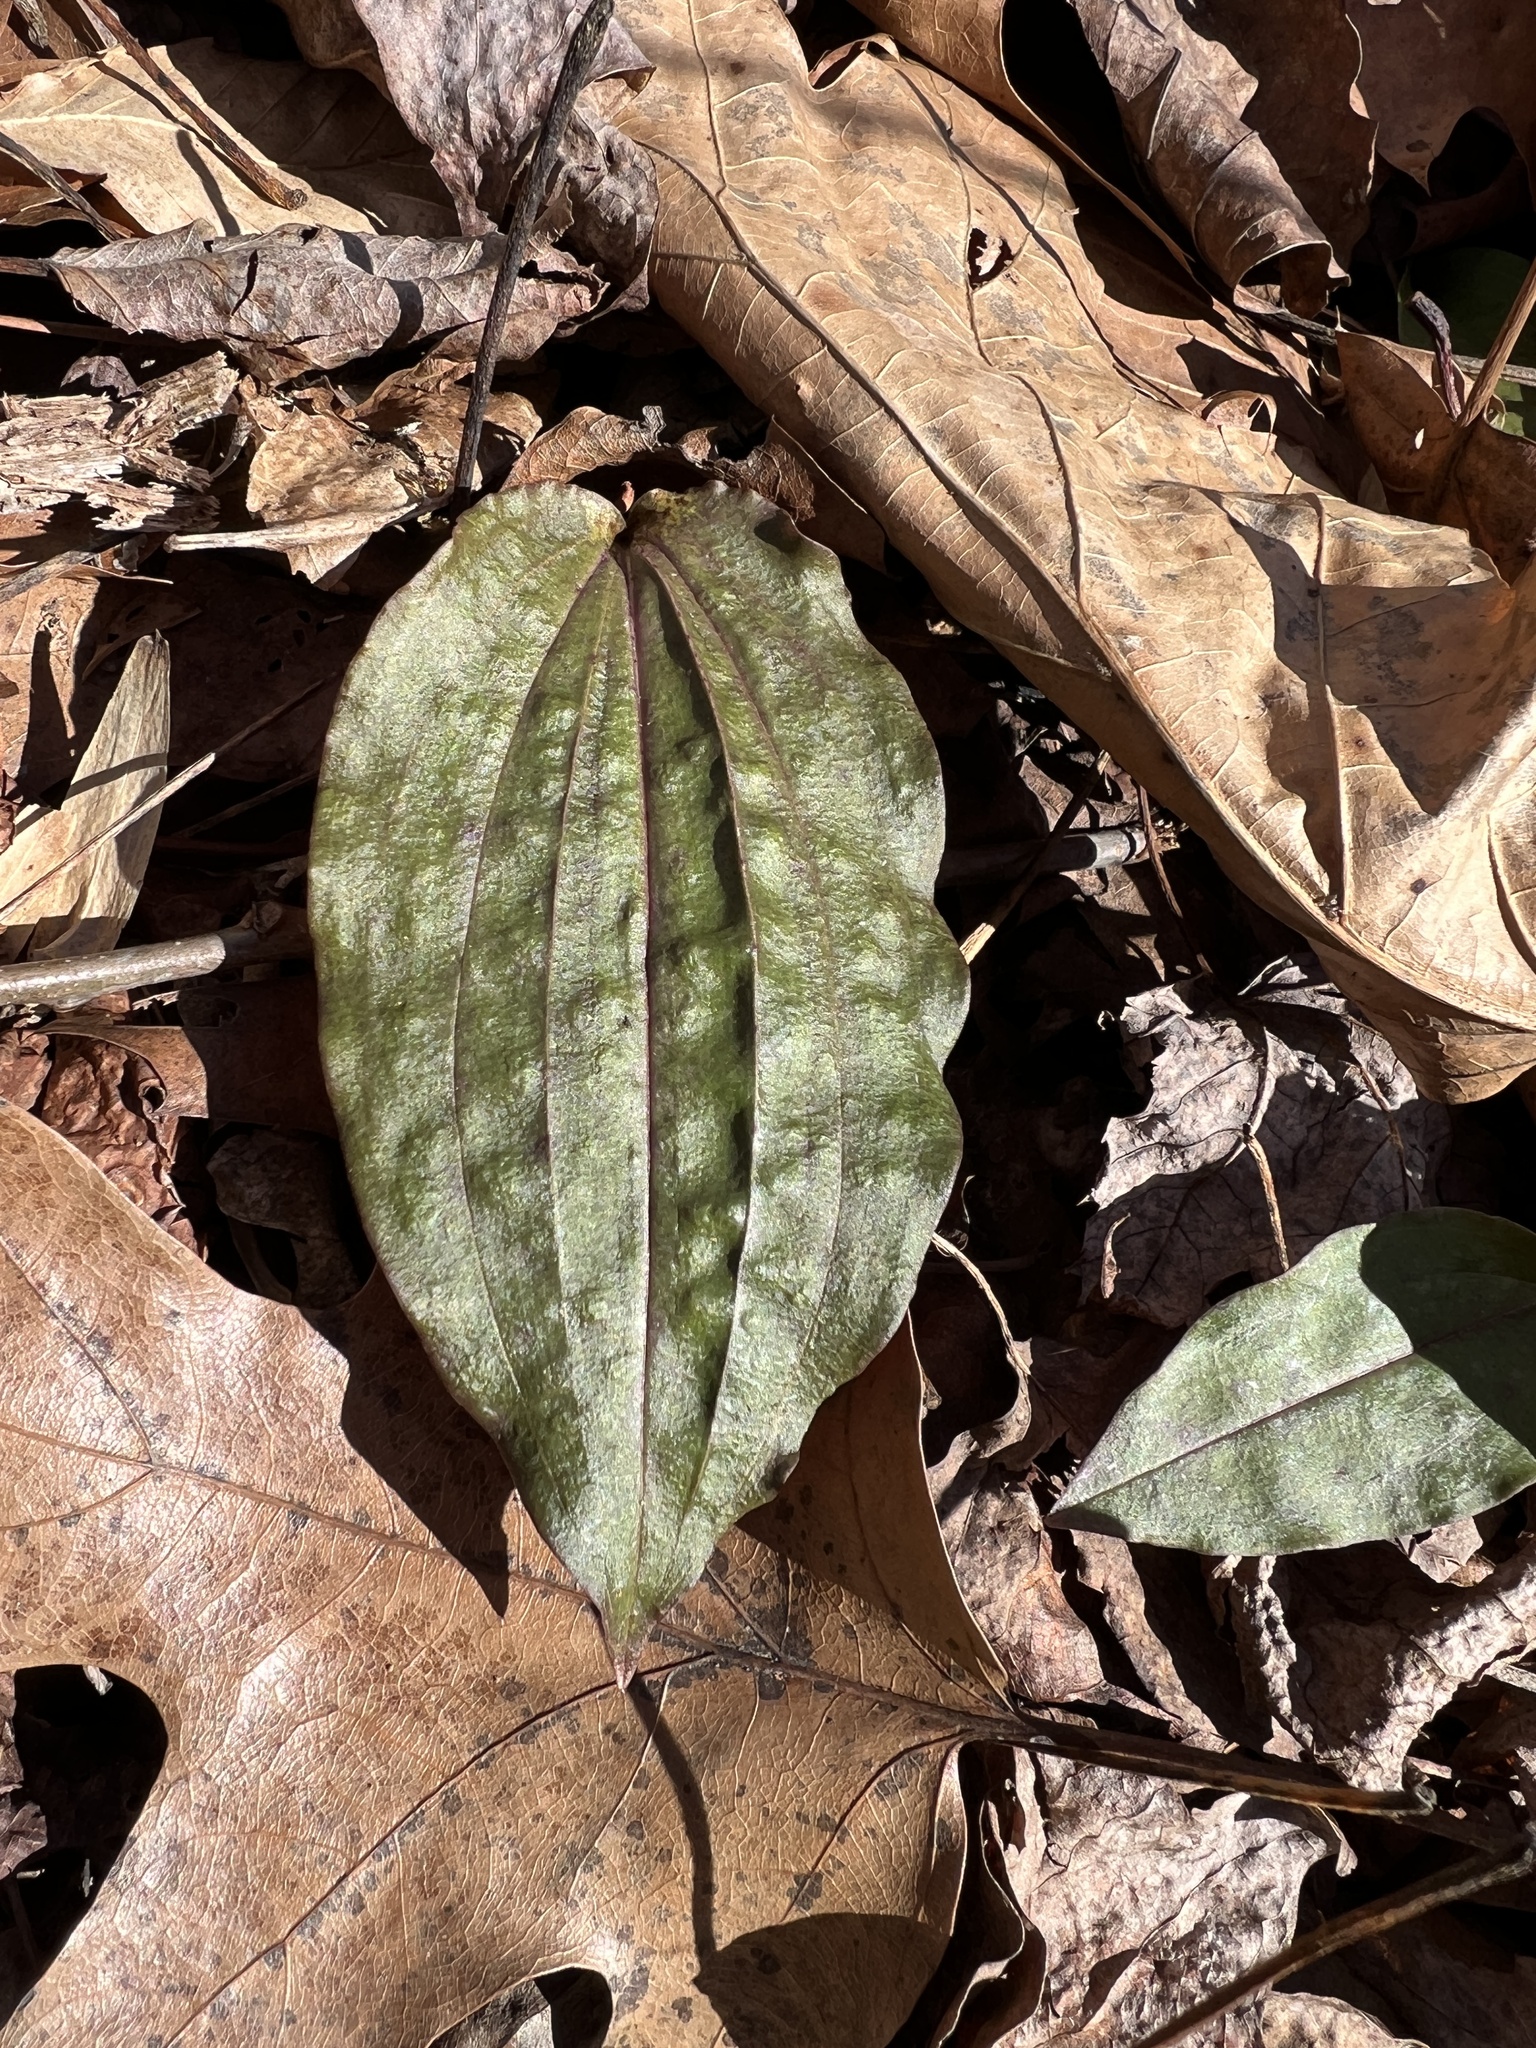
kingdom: Plantae
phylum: Tracheophyta
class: Liliopsida
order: Asparagales
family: Orchidaceae
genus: Tipularia
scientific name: Tipularia discolor
